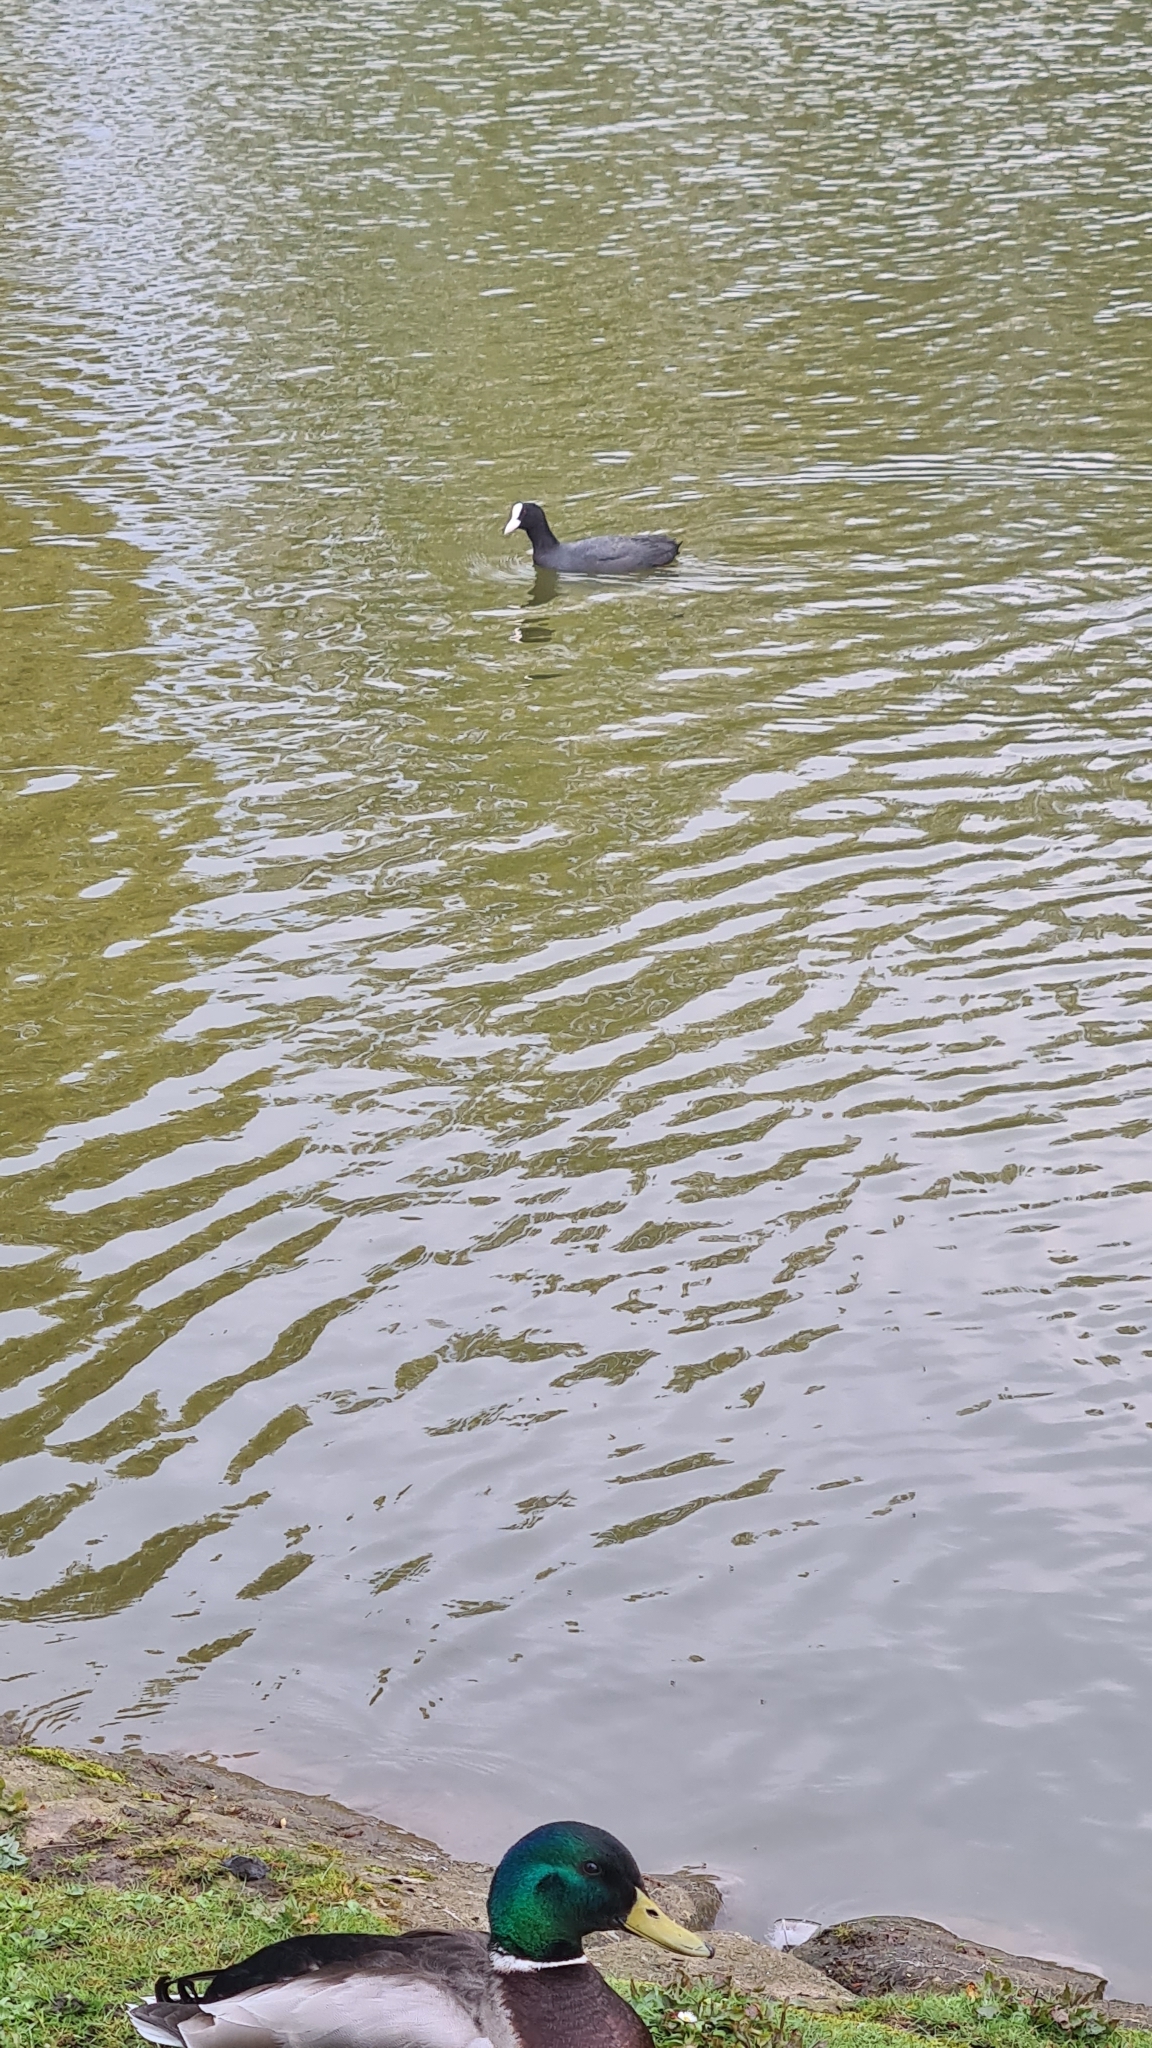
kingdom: Animalia
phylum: Chordata
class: Aves
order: Gruiformes
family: Rallidae
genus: Fulica
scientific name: Fulica atra
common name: Eurasian coot
